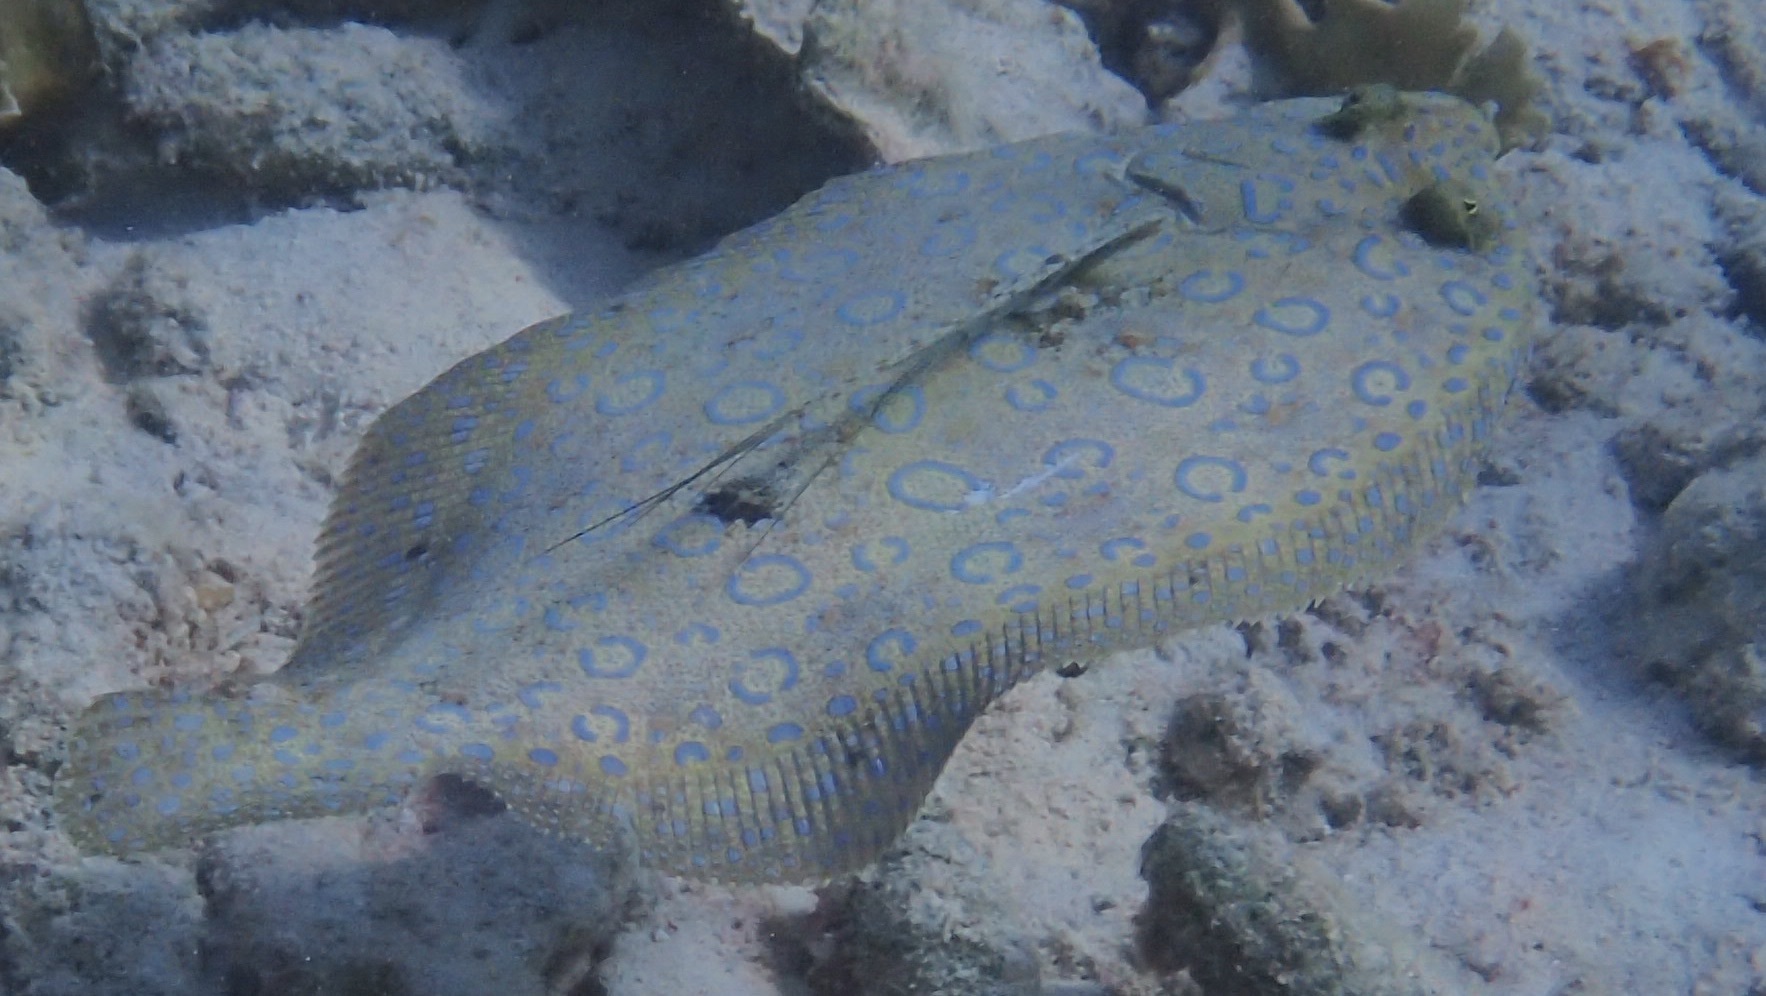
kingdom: Animalia
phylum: Chordata
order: Pleuronectiformes
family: Bothidae
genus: Bothus
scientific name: Bothus lunatus
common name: Peacock flounder
